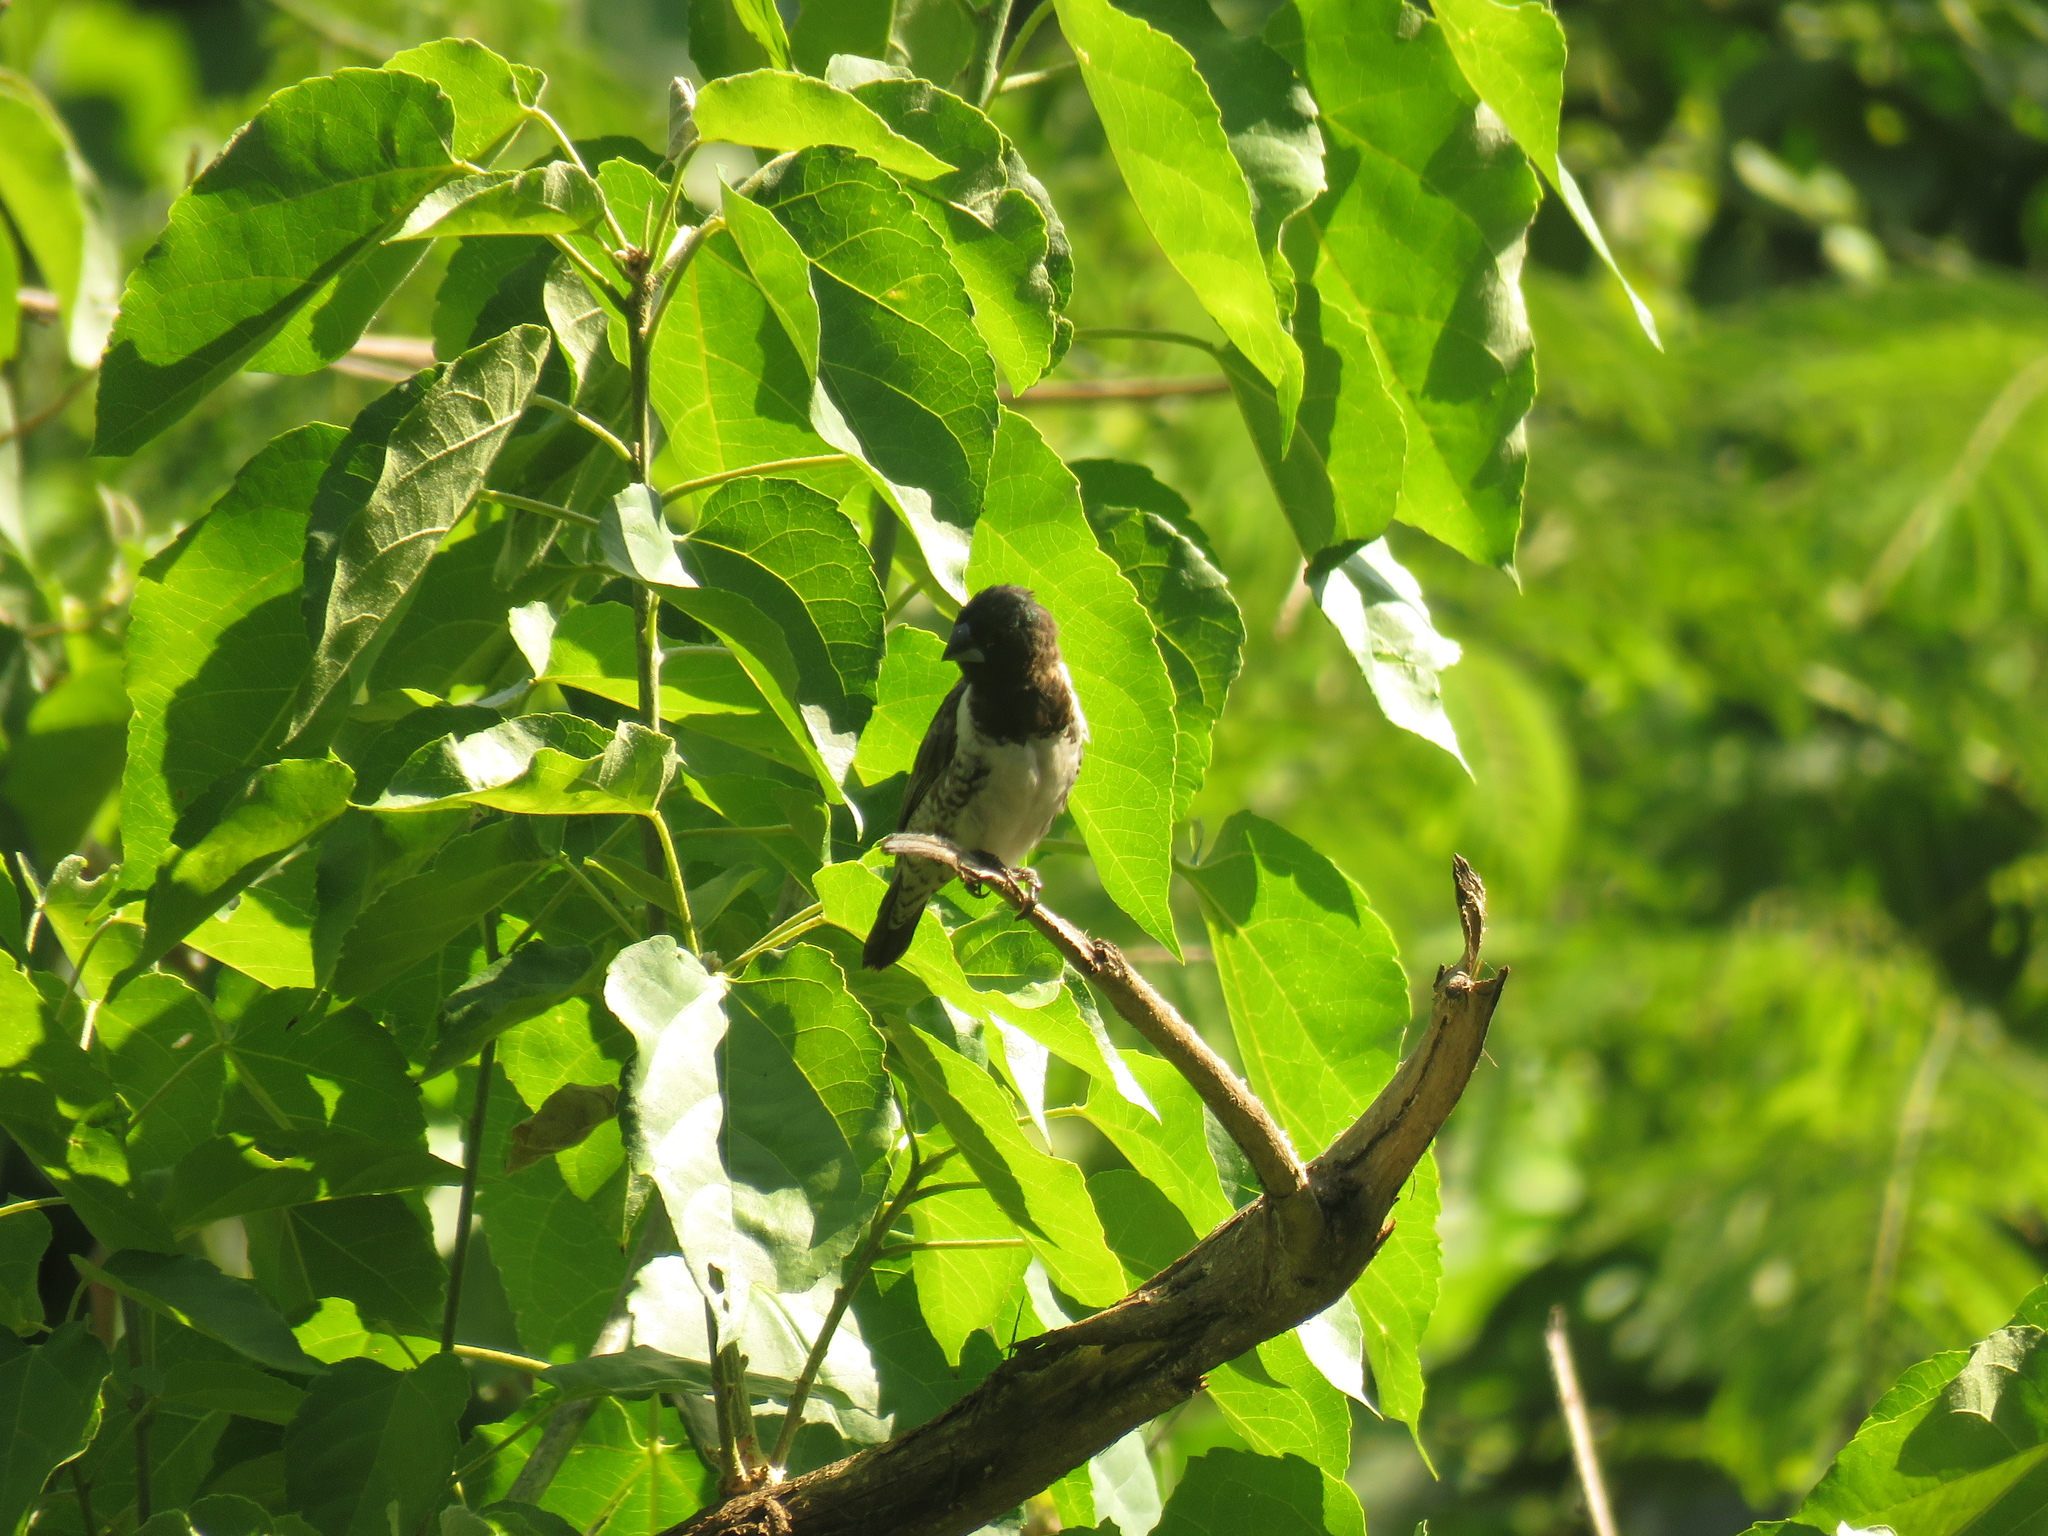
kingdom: Animalia
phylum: Chordata
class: Aves
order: Passeriformes
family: Estrildidae
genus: Lonchura
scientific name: Lonchura cucullata
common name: Bronze mannikin
